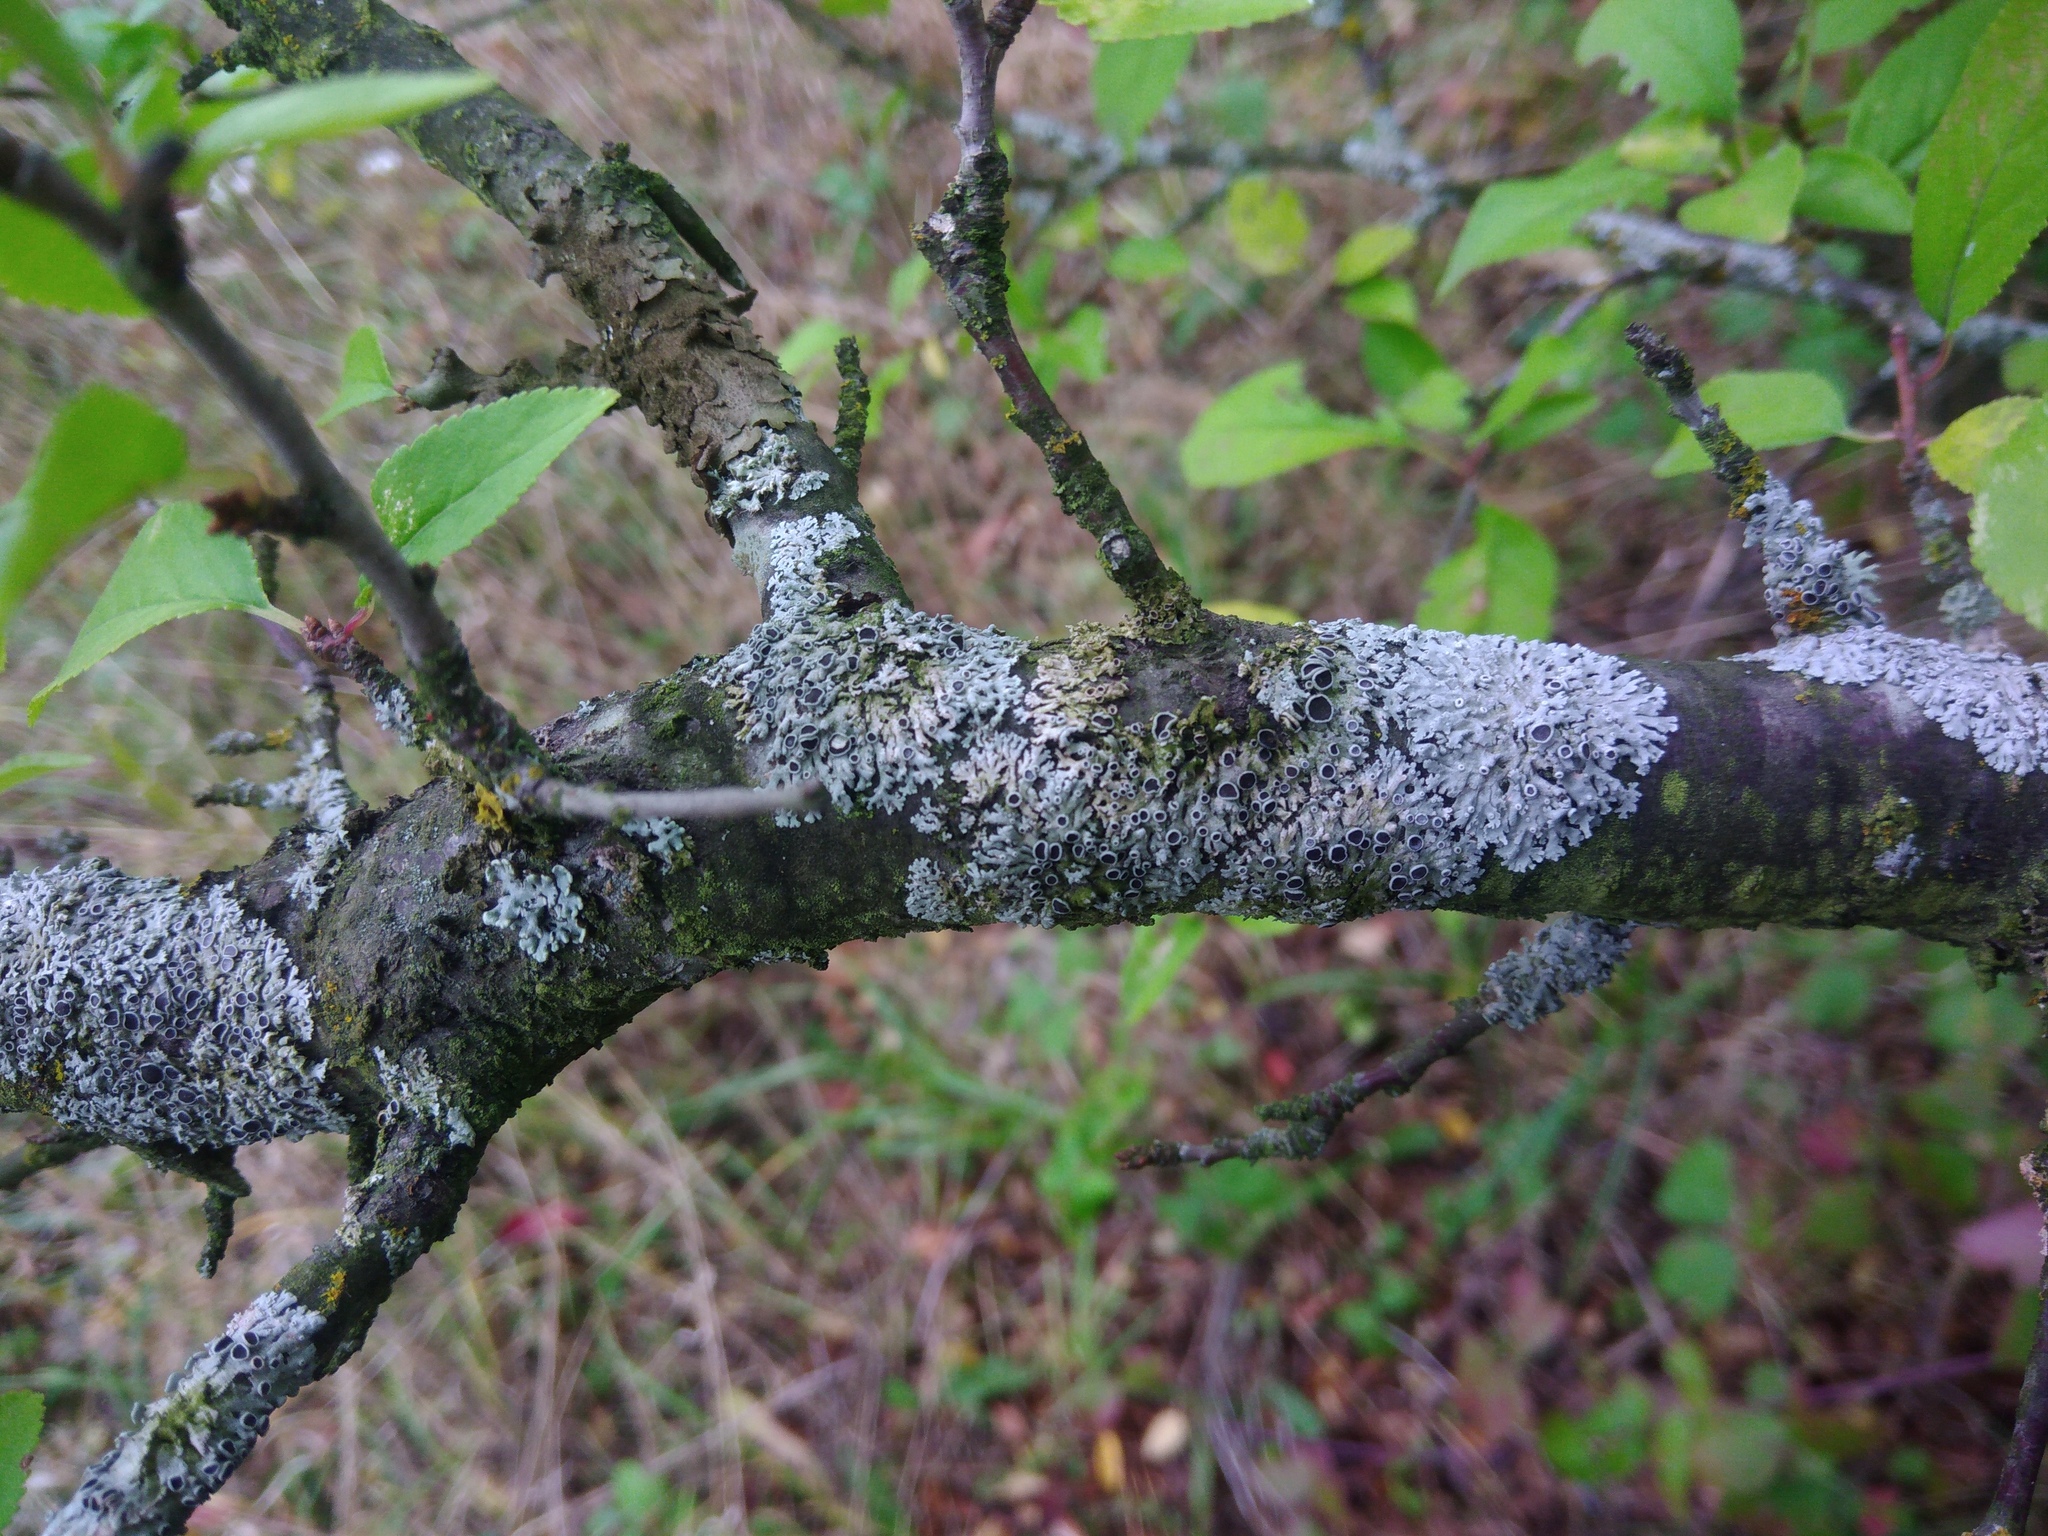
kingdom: Fungi
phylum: Ascomycota
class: Lecanoromycetes
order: Caliciales
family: Physciaceae
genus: Physcia
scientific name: Physcia stellaris
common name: Star rosette lichen
